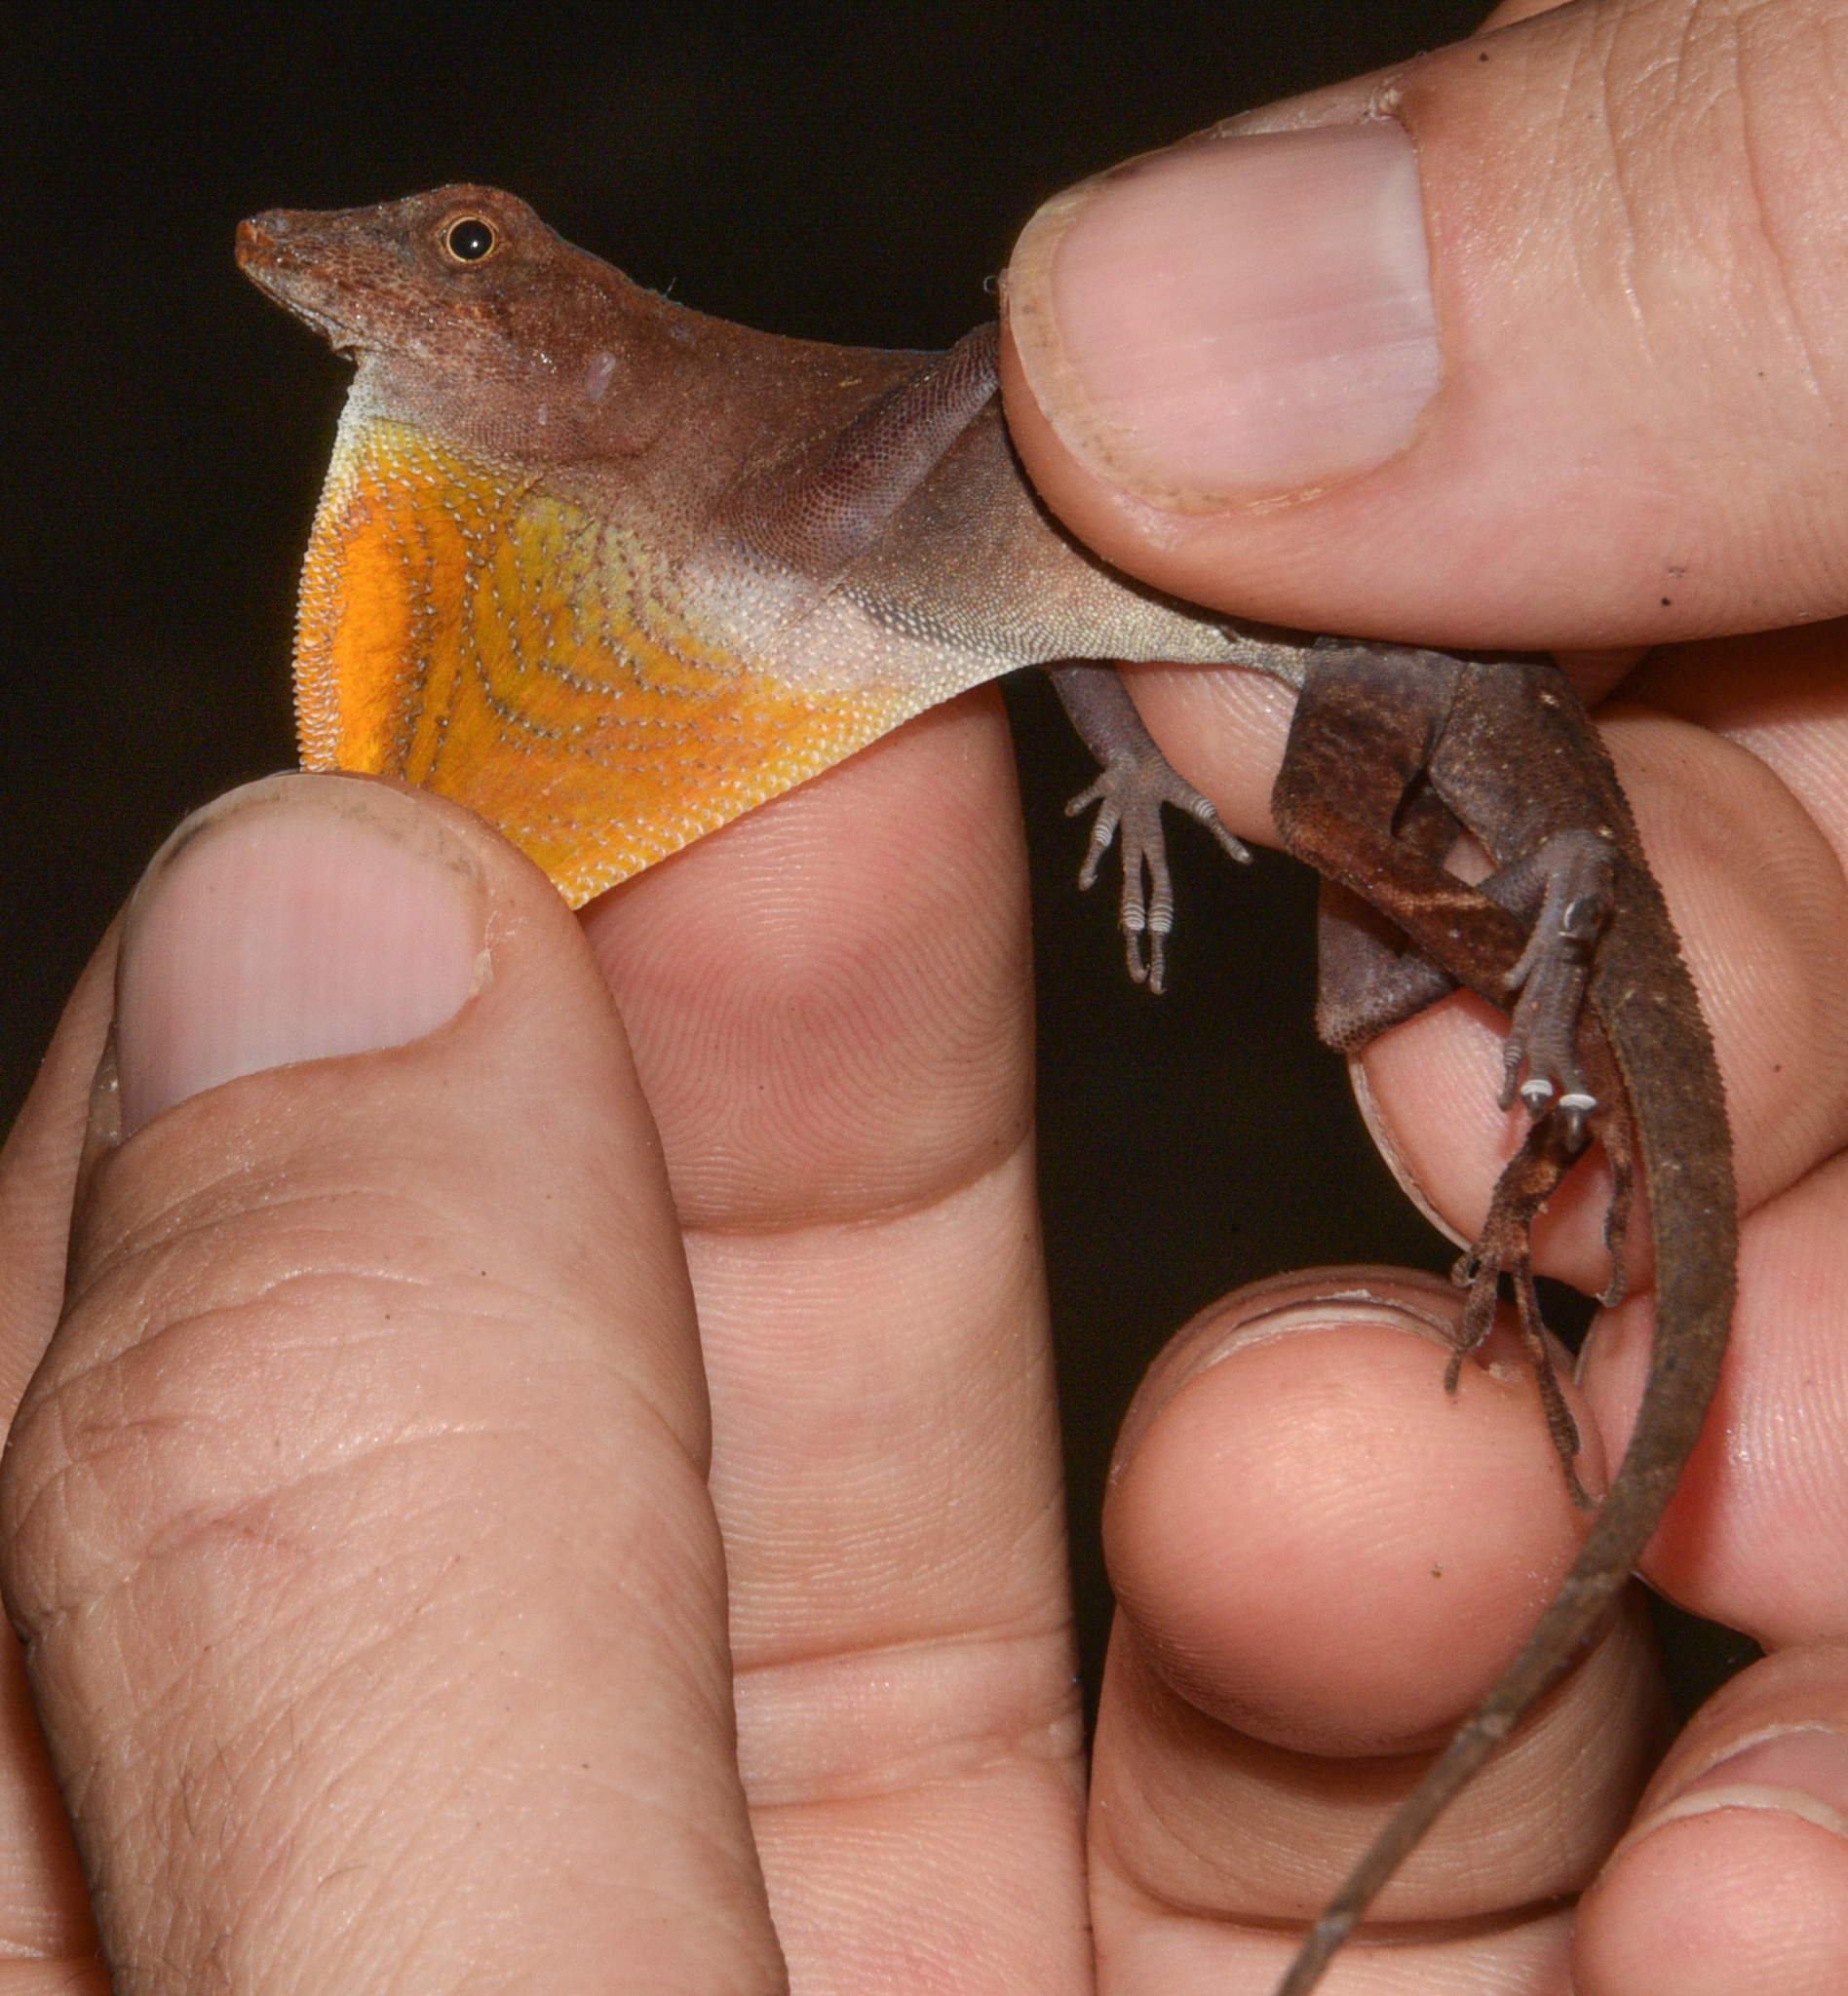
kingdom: Animalia
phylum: Chordata
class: Squamata
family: Dactyloidae
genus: Anolis
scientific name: Anolis osa
